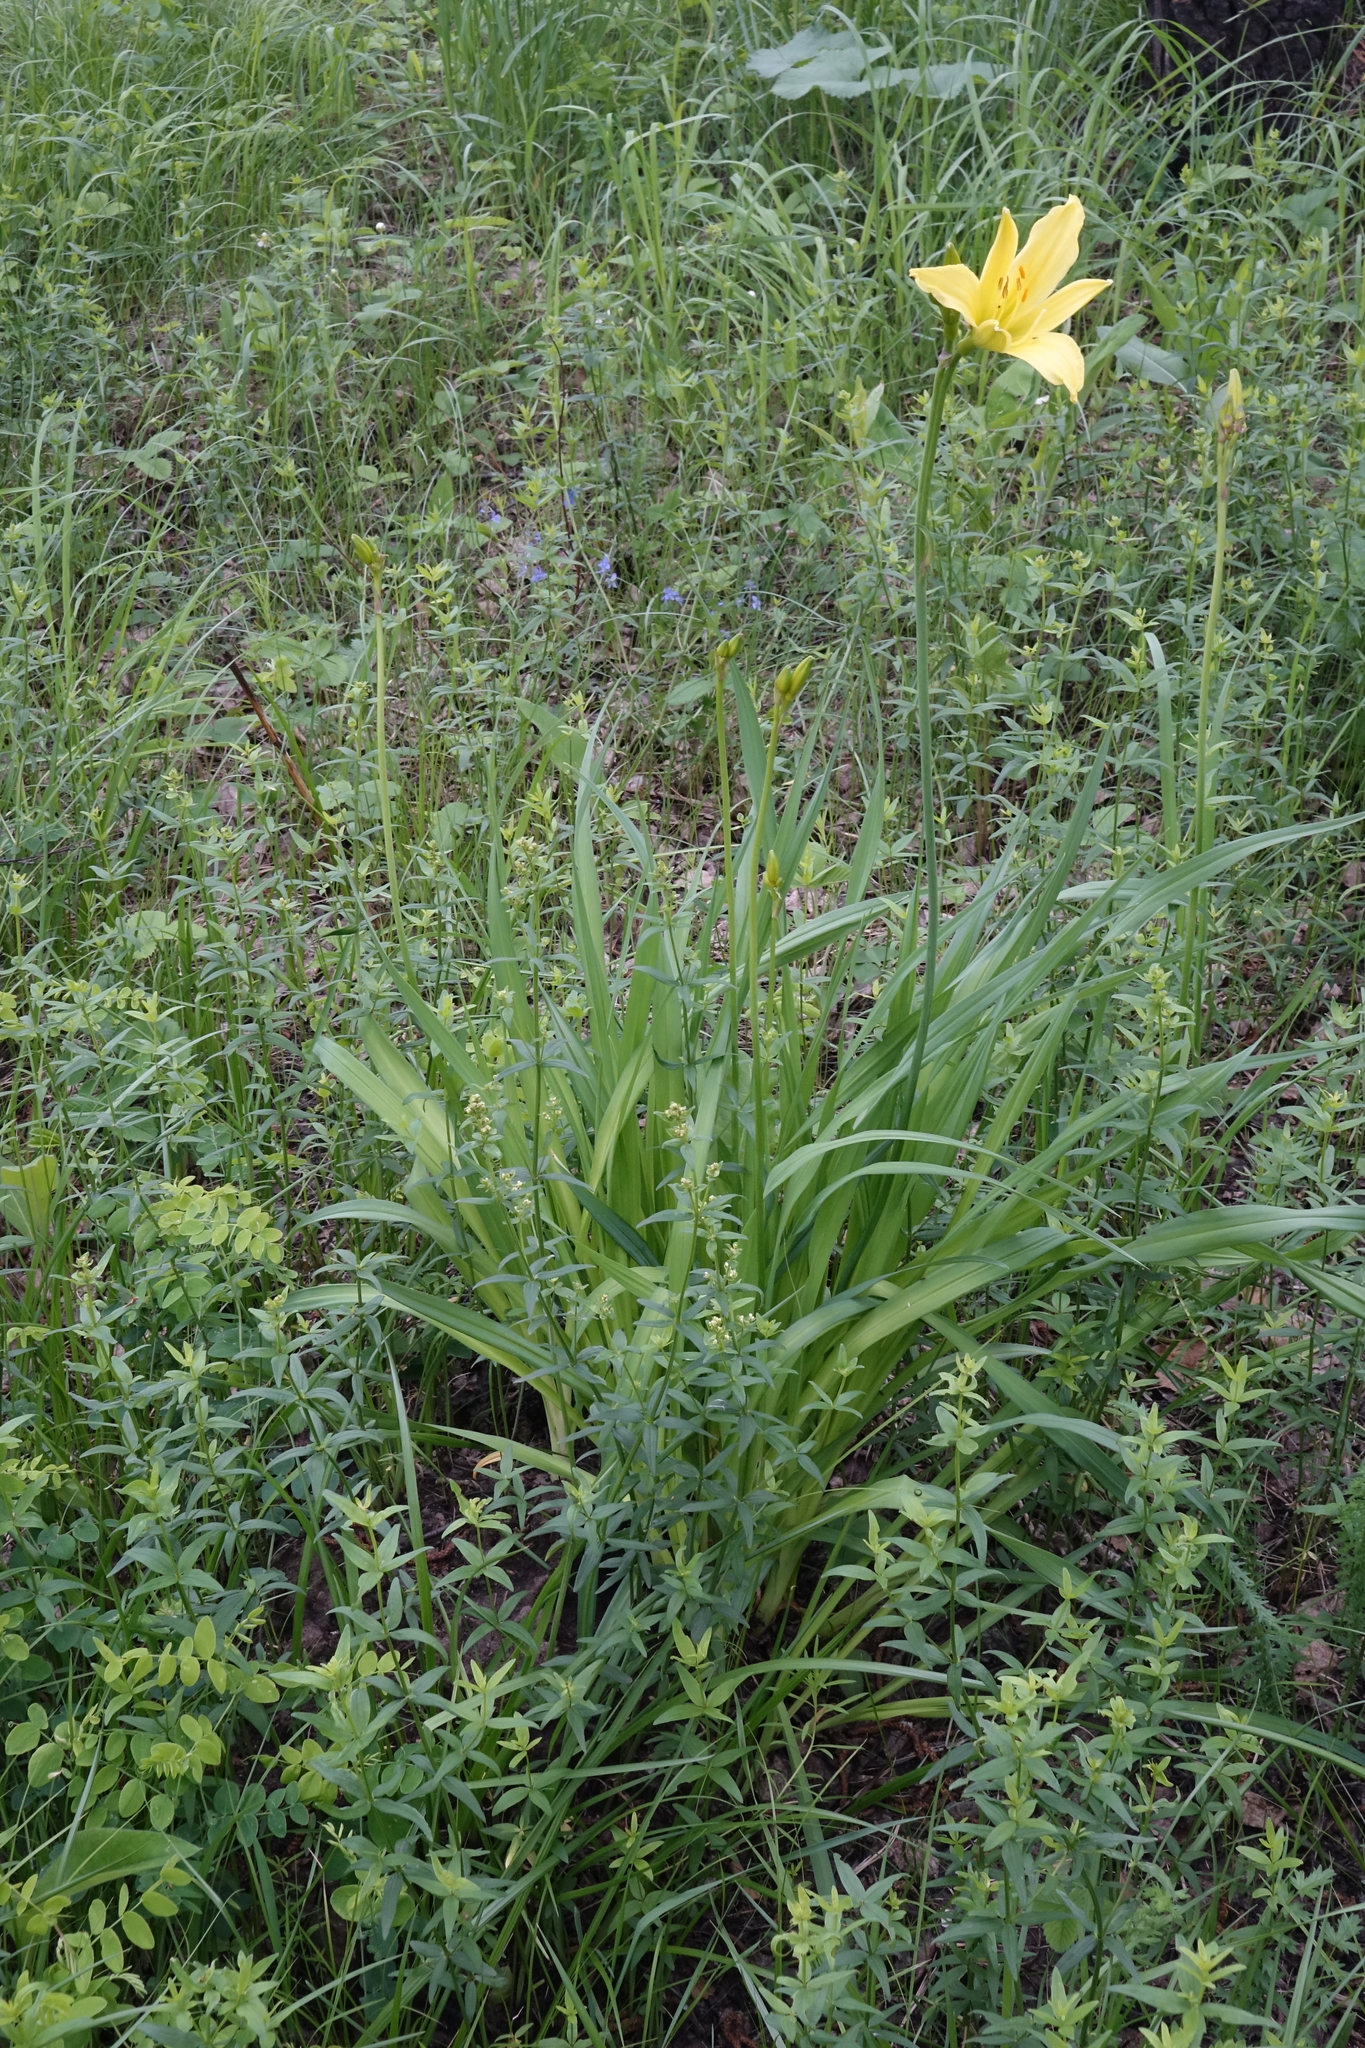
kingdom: Plantae
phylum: Tracheophyta
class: Liliopsida
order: Asparagales
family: Asphodelaceae
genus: Hemerocallis
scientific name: Hemerocallis minor
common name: Small daylily
